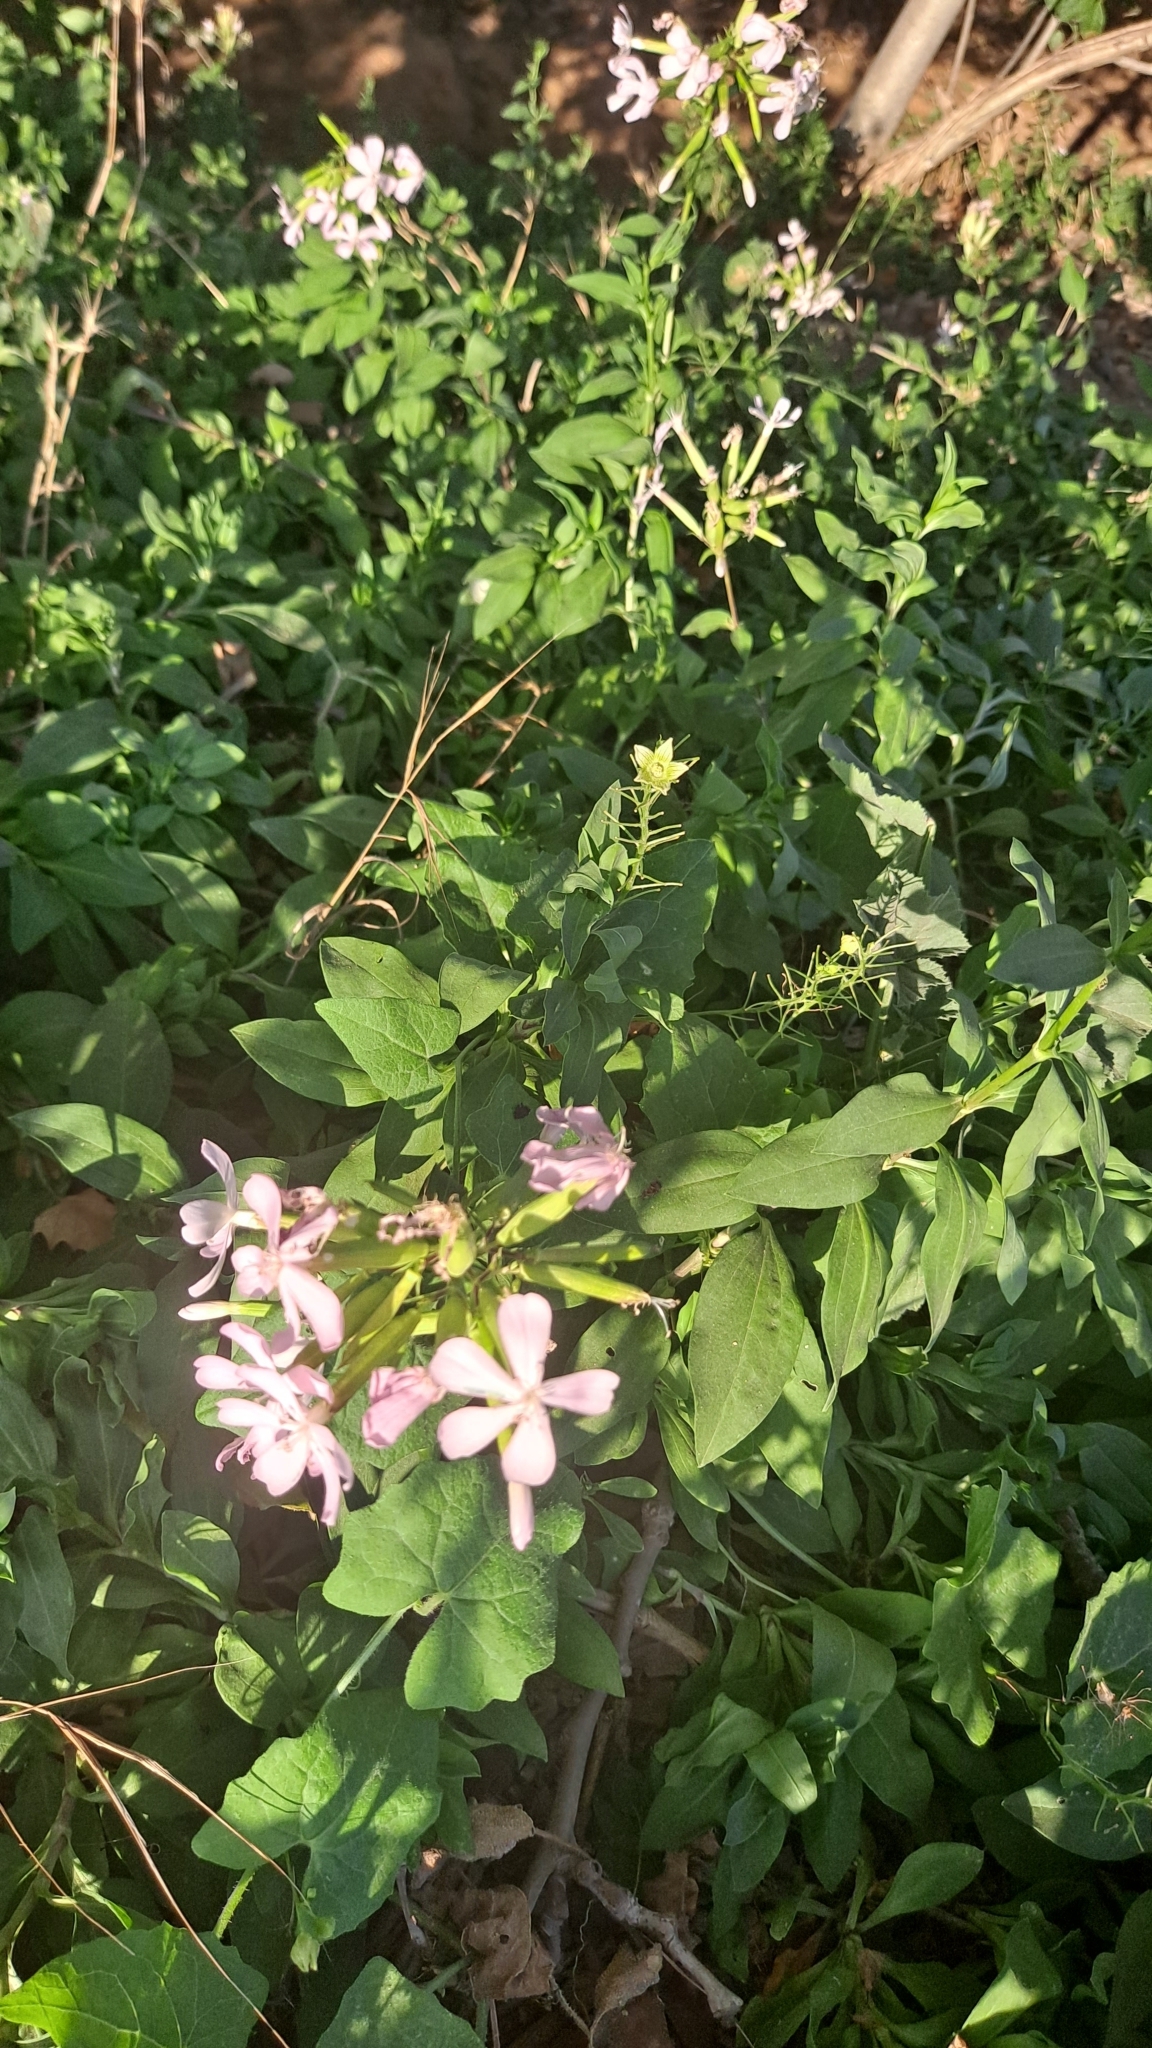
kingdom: Plantae
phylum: Tracheophyta
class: Magnoliopsida
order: Caryophyllales
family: Caryophyllaceae
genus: Saponaria
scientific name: Saponaria officinalis
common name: Soapwort
